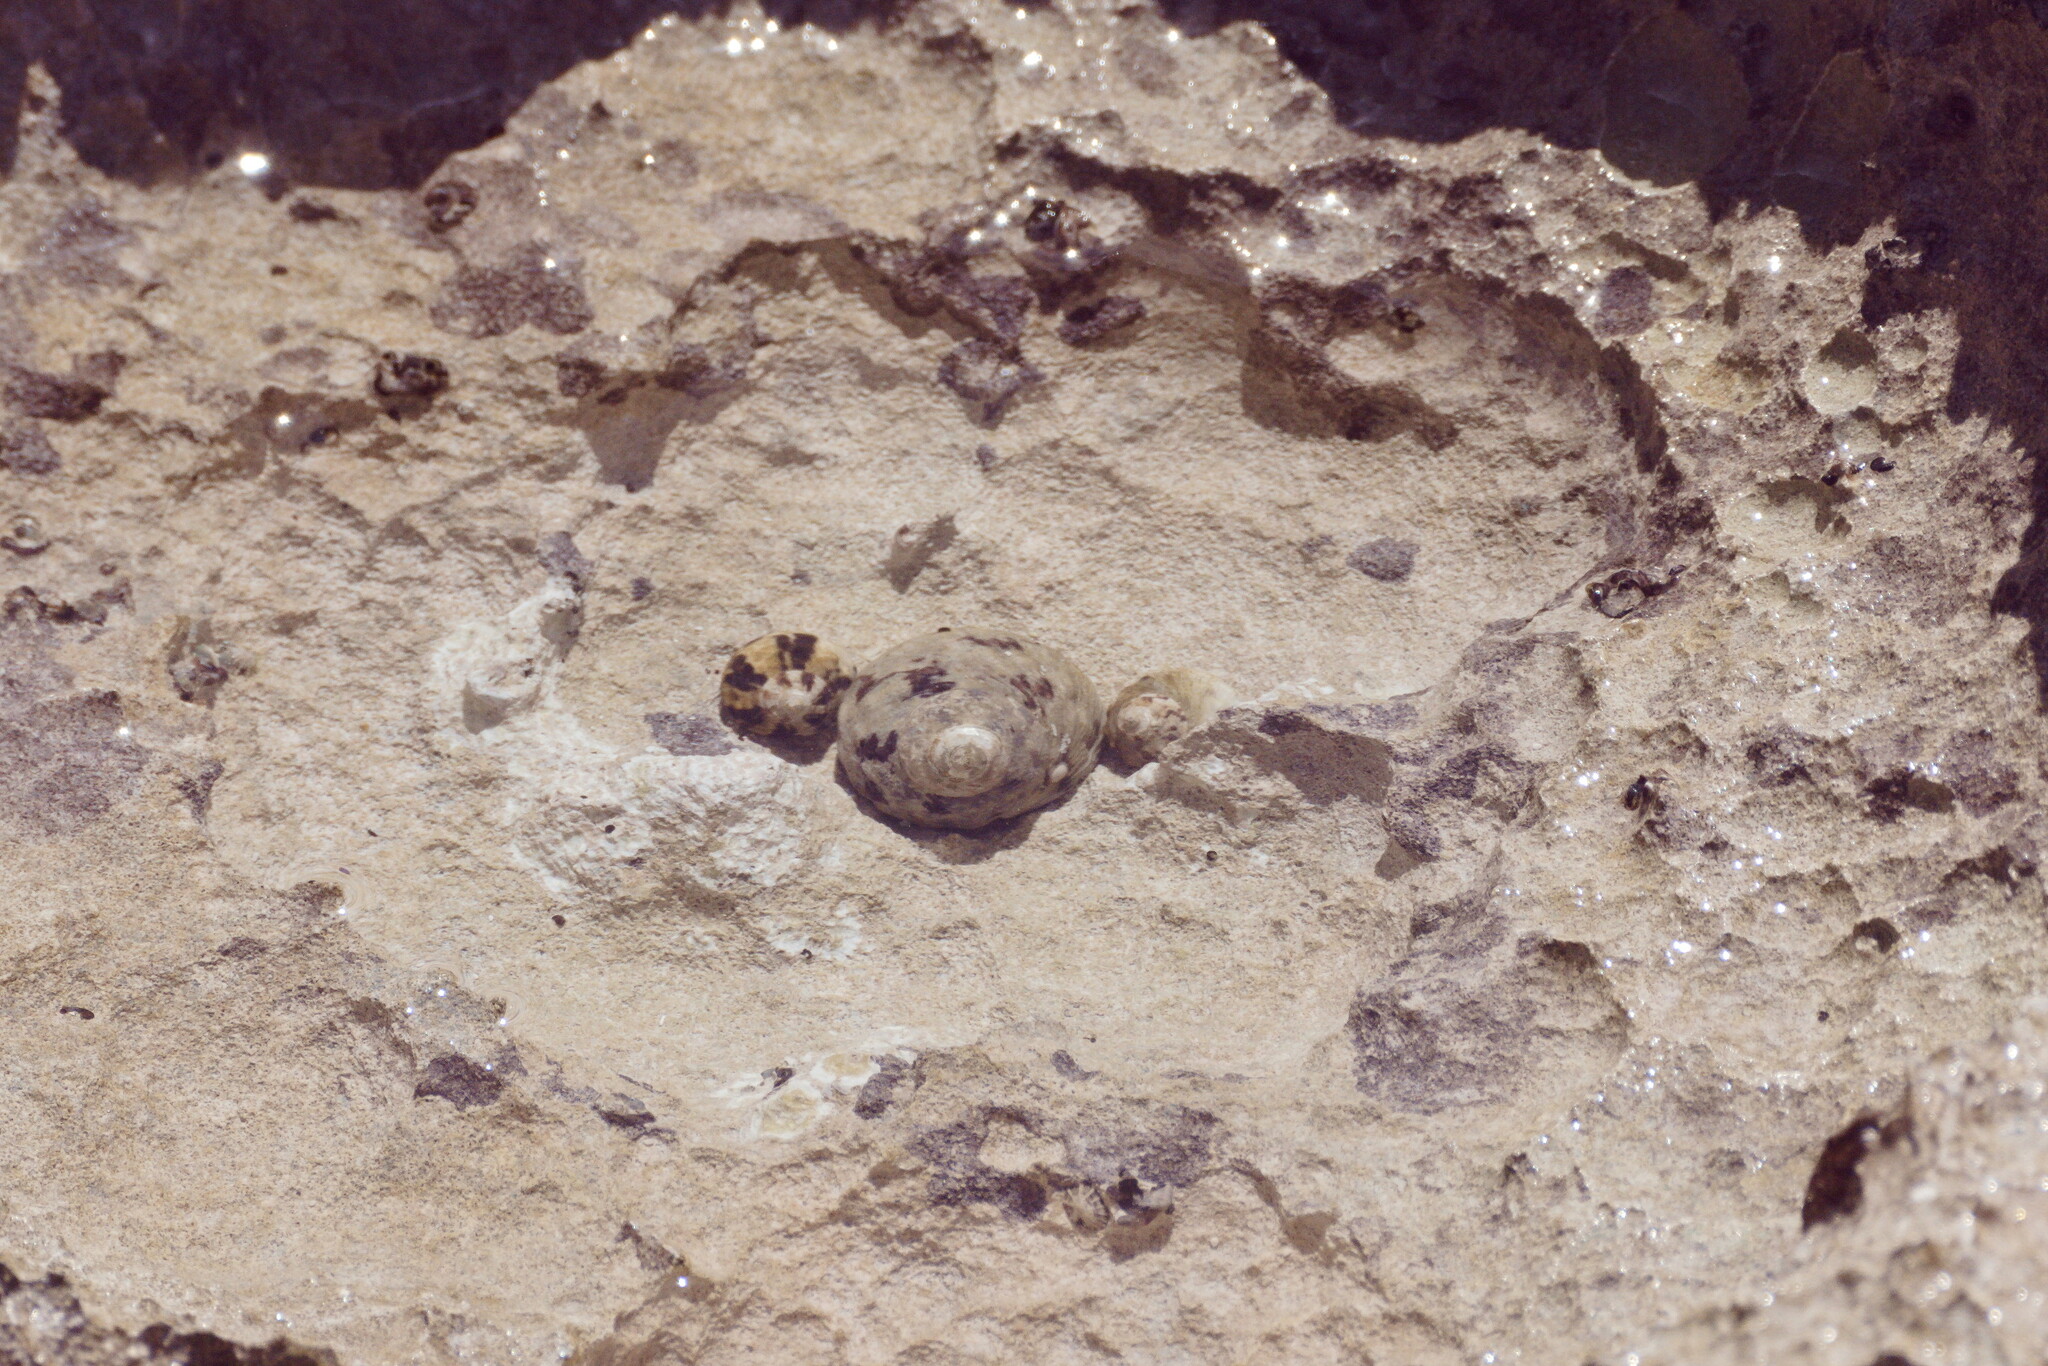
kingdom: Animalia
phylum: Mollusca
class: Gastropoda
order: Trochida
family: Tegulidae
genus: Cittarium
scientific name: Cittarium pica
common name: West indian topshell
